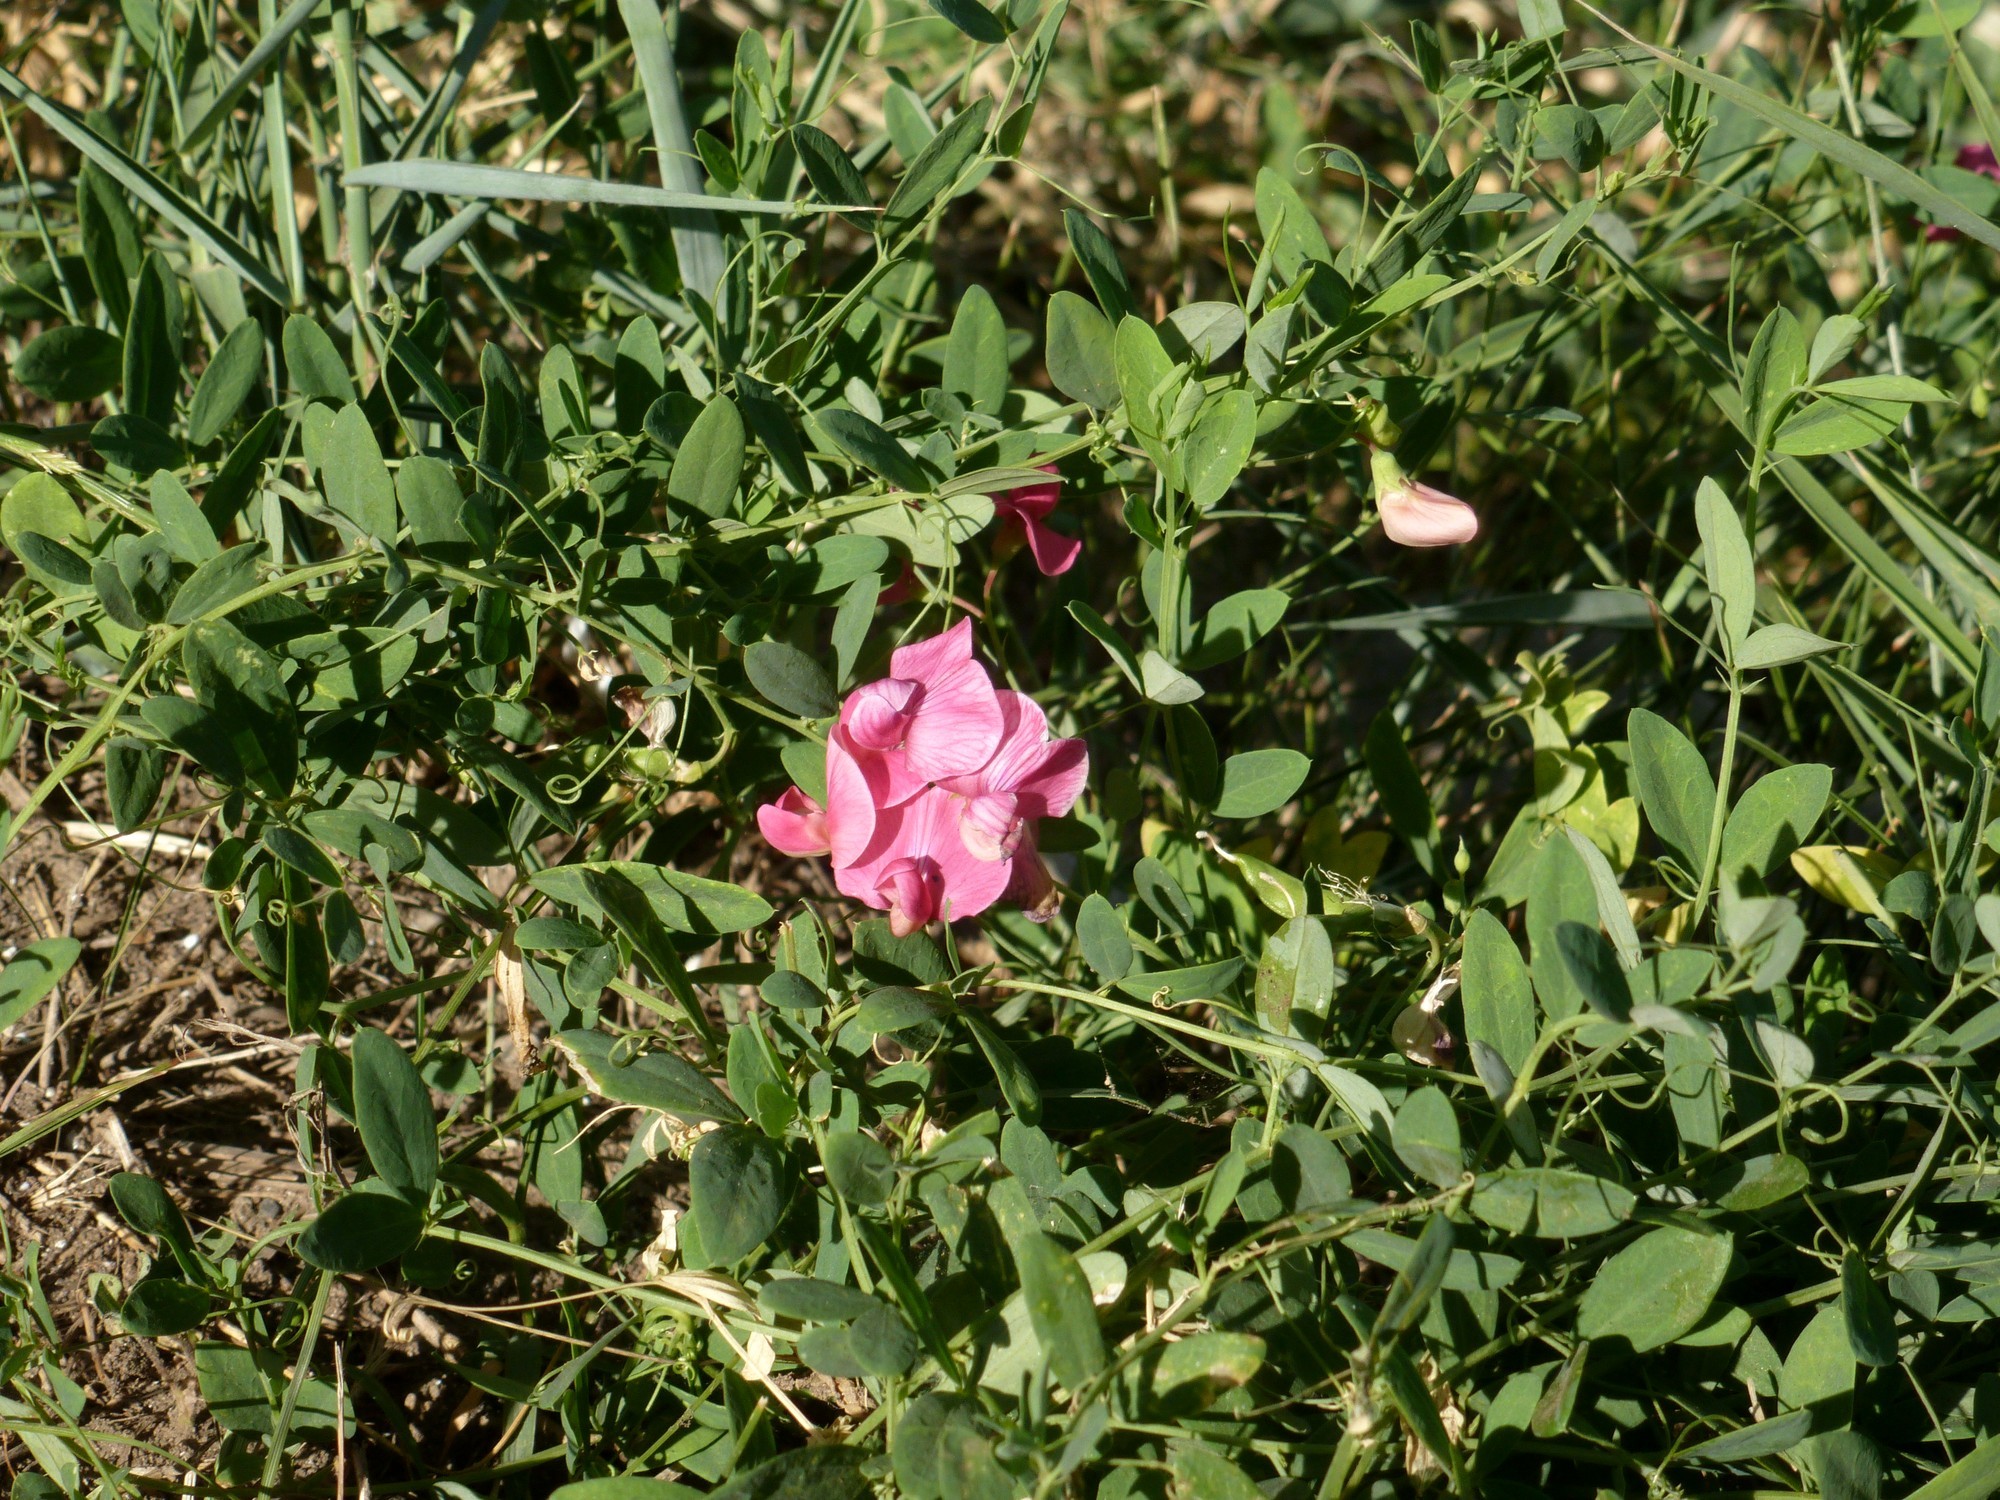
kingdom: Plantae
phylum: Tracheophyta
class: Magnoliopsida
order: Fabales
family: Fabaceae
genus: Lathyrus
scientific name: Lathyrus tuberosus
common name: Tuberous pea
